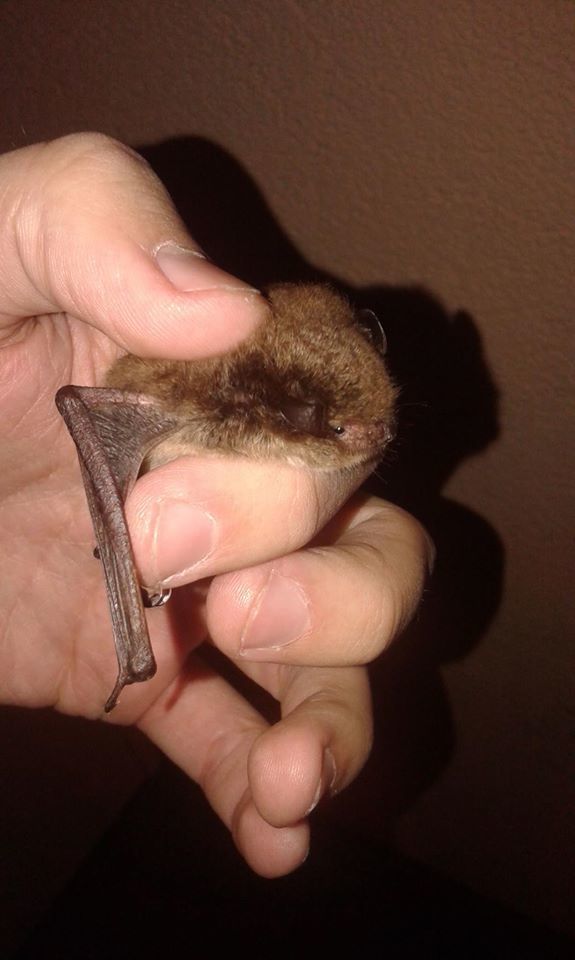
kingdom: Animalia
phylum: Chordata
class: Mammalia
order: Chiroptera
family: Vespertilionidae
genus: Myotis
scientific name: Myotis daubentonii
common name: Daubenton's myotis
